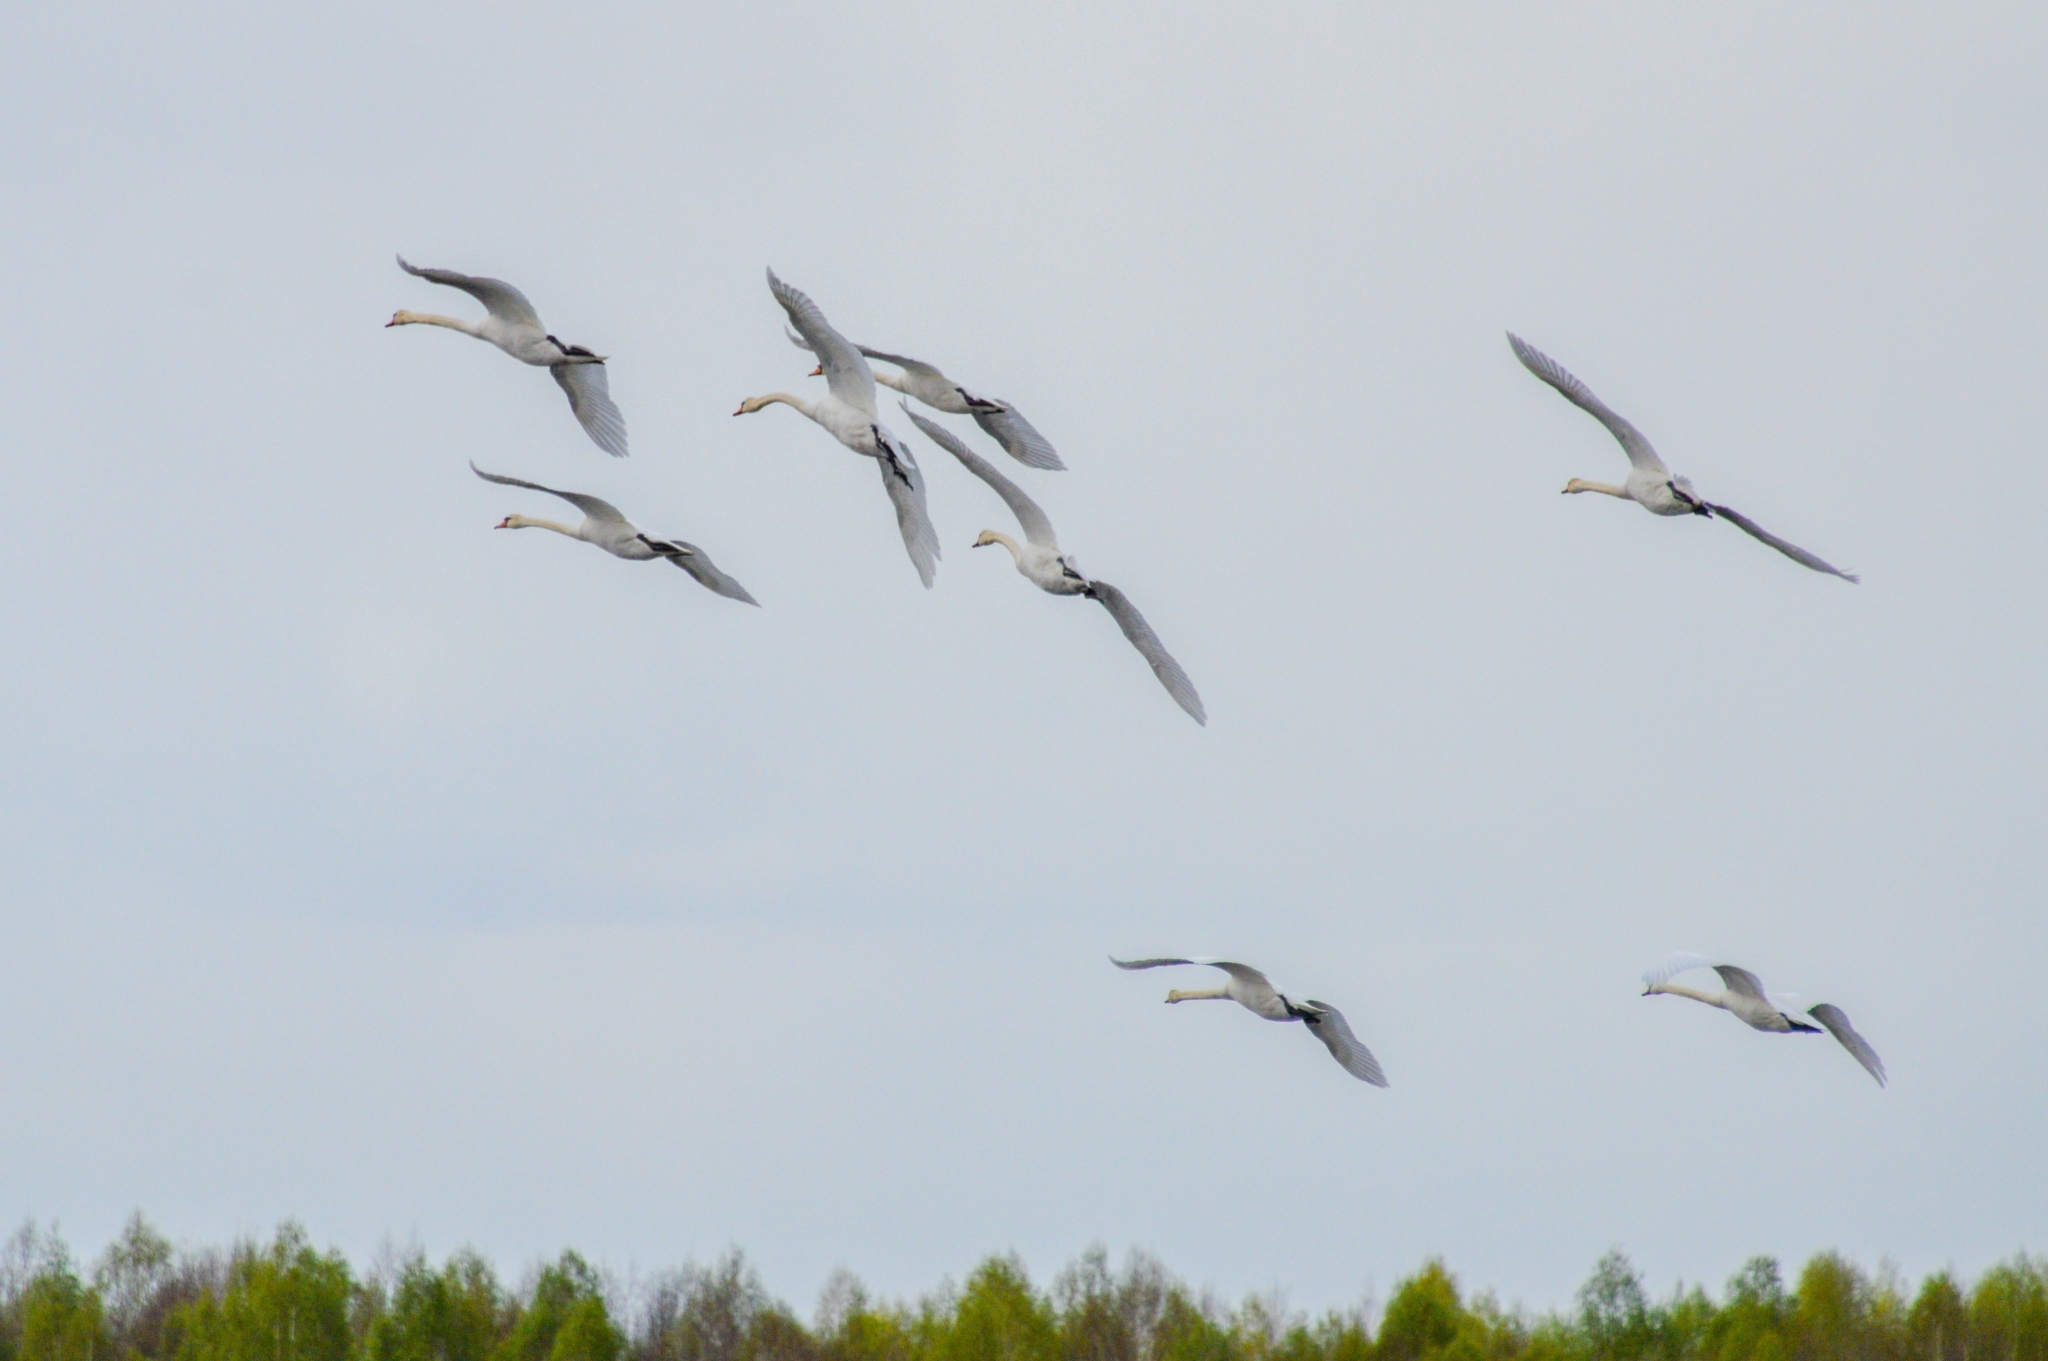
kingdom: Animalia
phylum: Chordata
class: Aves
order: Anseriformes
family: Anatidae
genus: Cygnus
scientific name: Cygnus olor
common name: Mute swan
